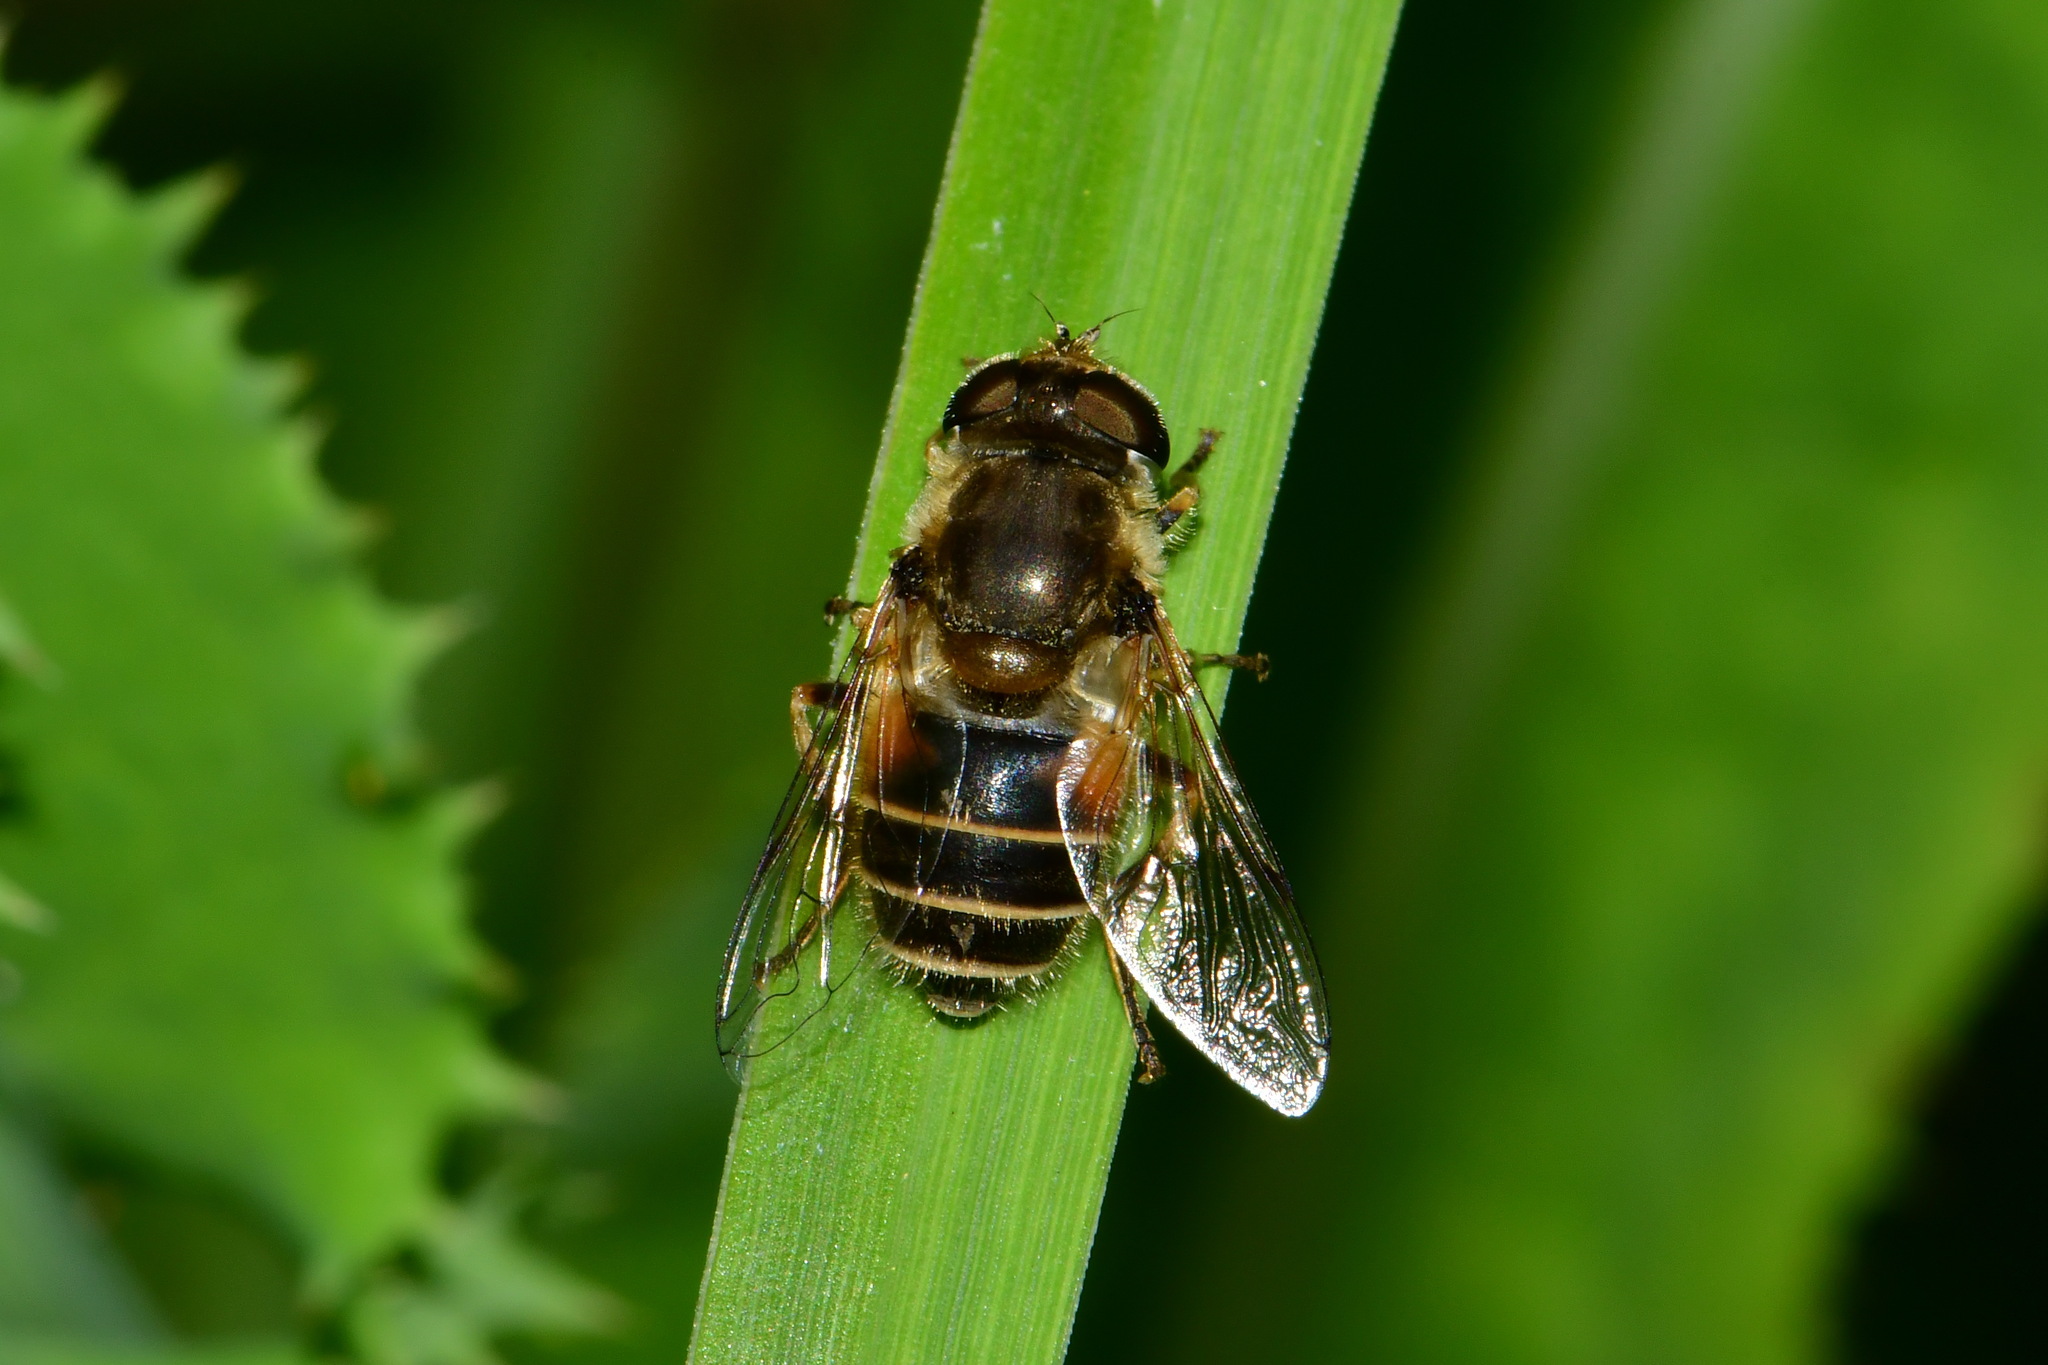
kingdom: Animalia
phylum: Arthropoda
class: Insecta
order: Diptera
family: Syrphidae
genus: Eristalis
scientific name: Eristalis arbustorum
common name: Hover fly
